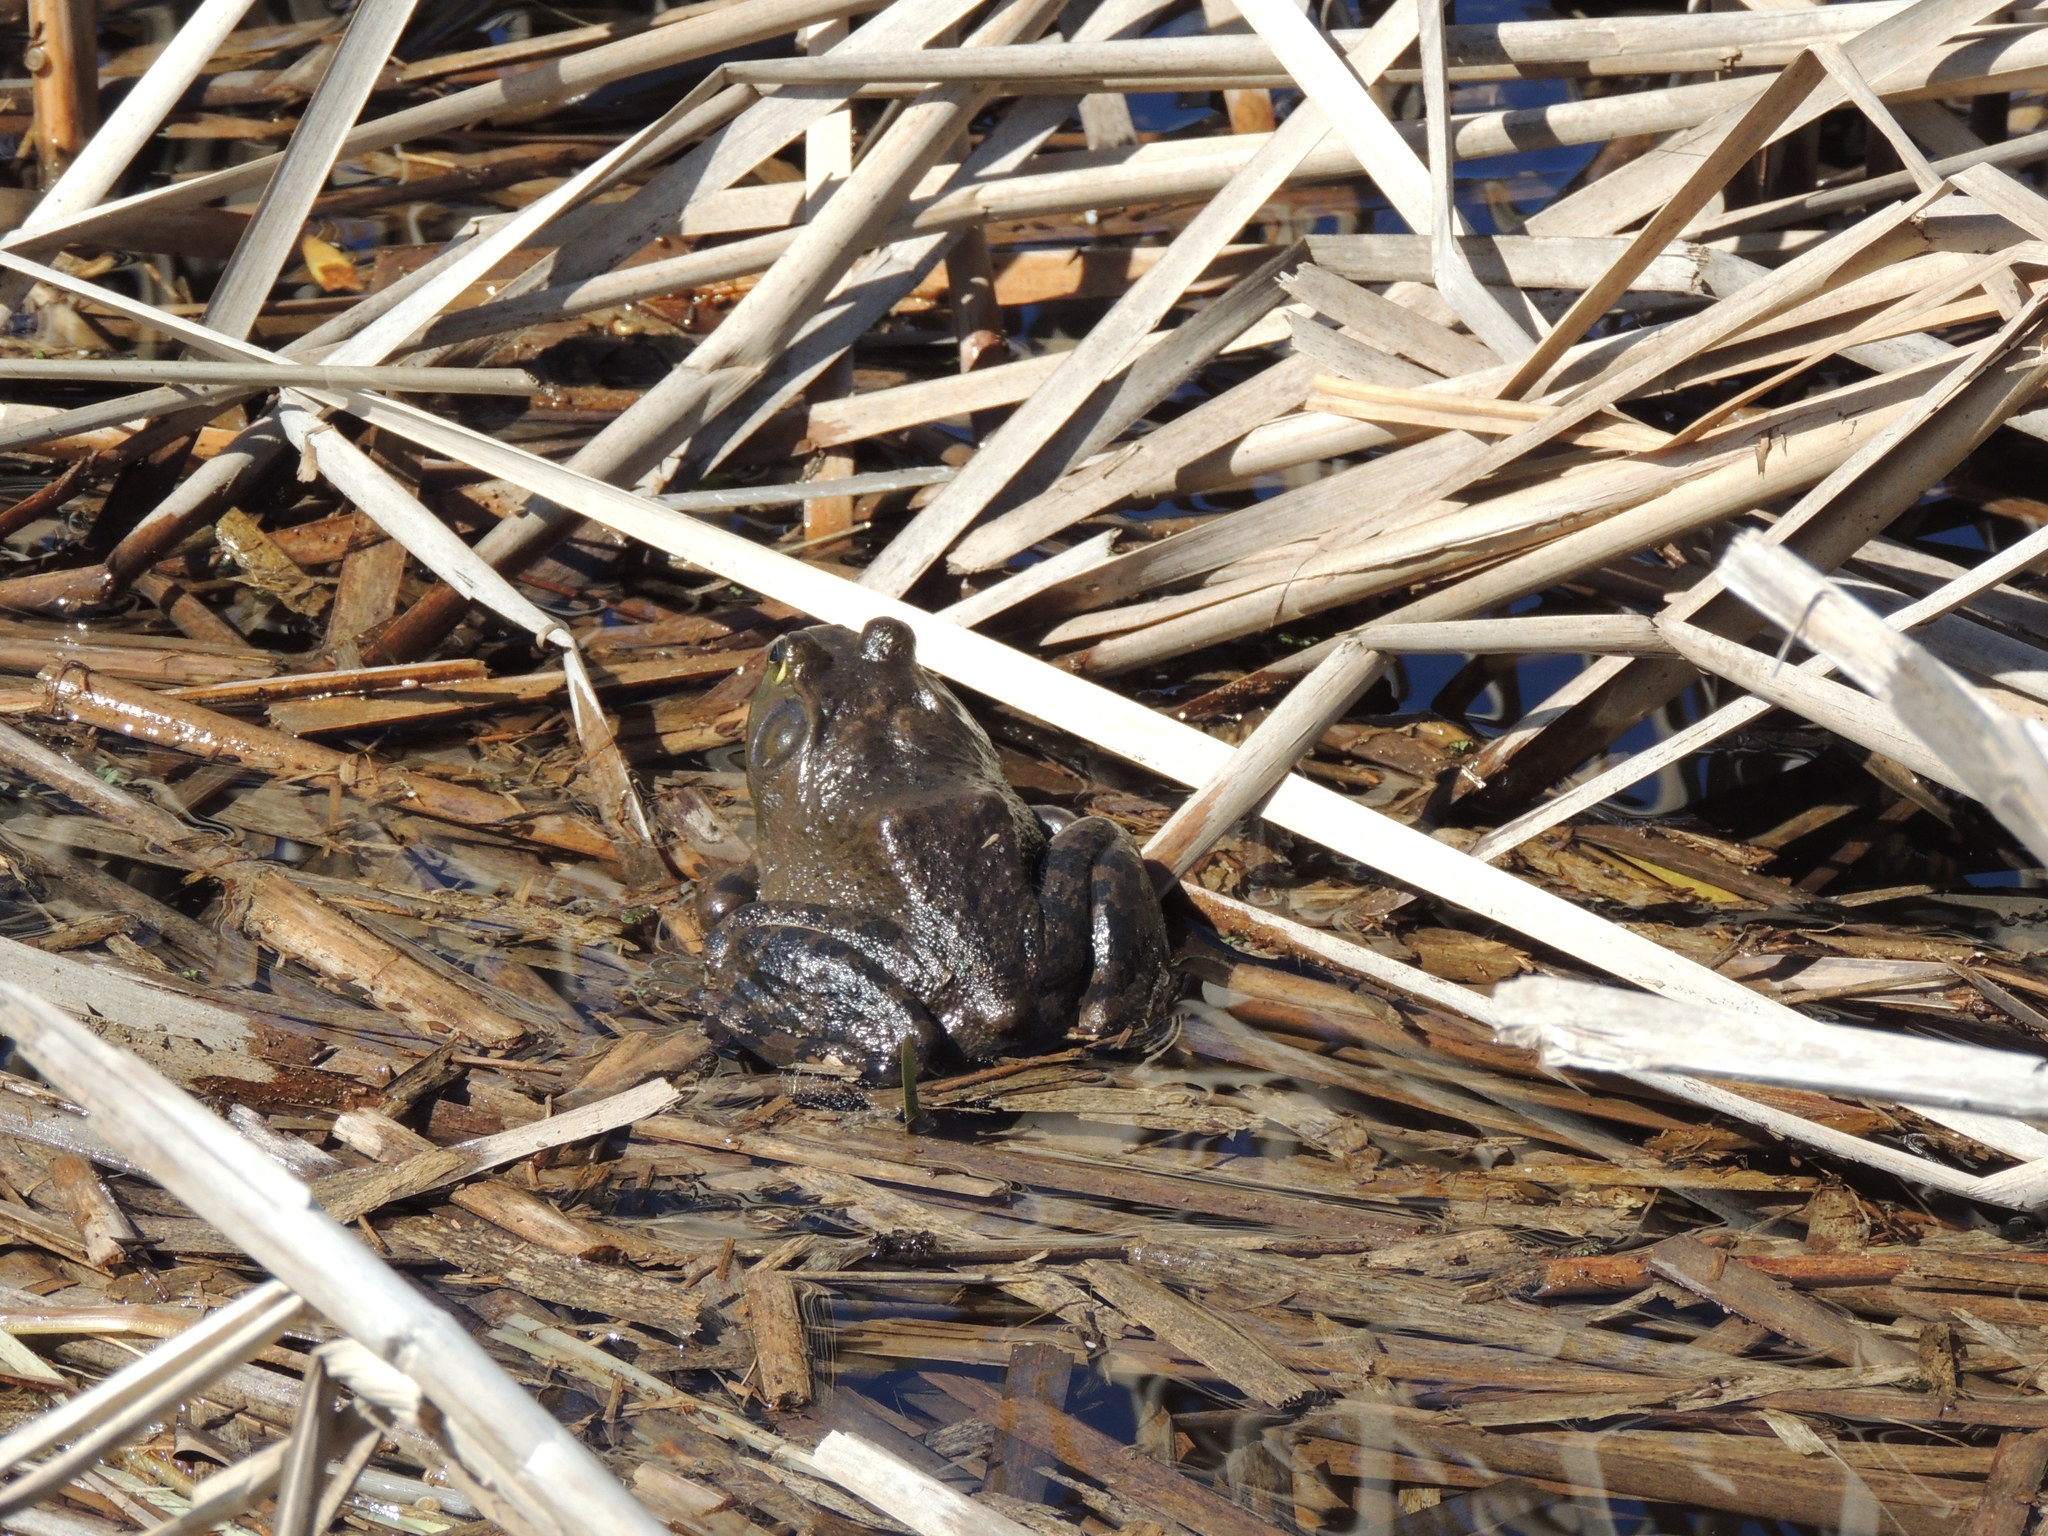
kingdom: Animalia
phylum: Chordata
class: Amphibia
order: Anura
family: Ranidae
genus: Lithobates
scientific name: Lithobates catesbeianus
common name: American bullfrog
